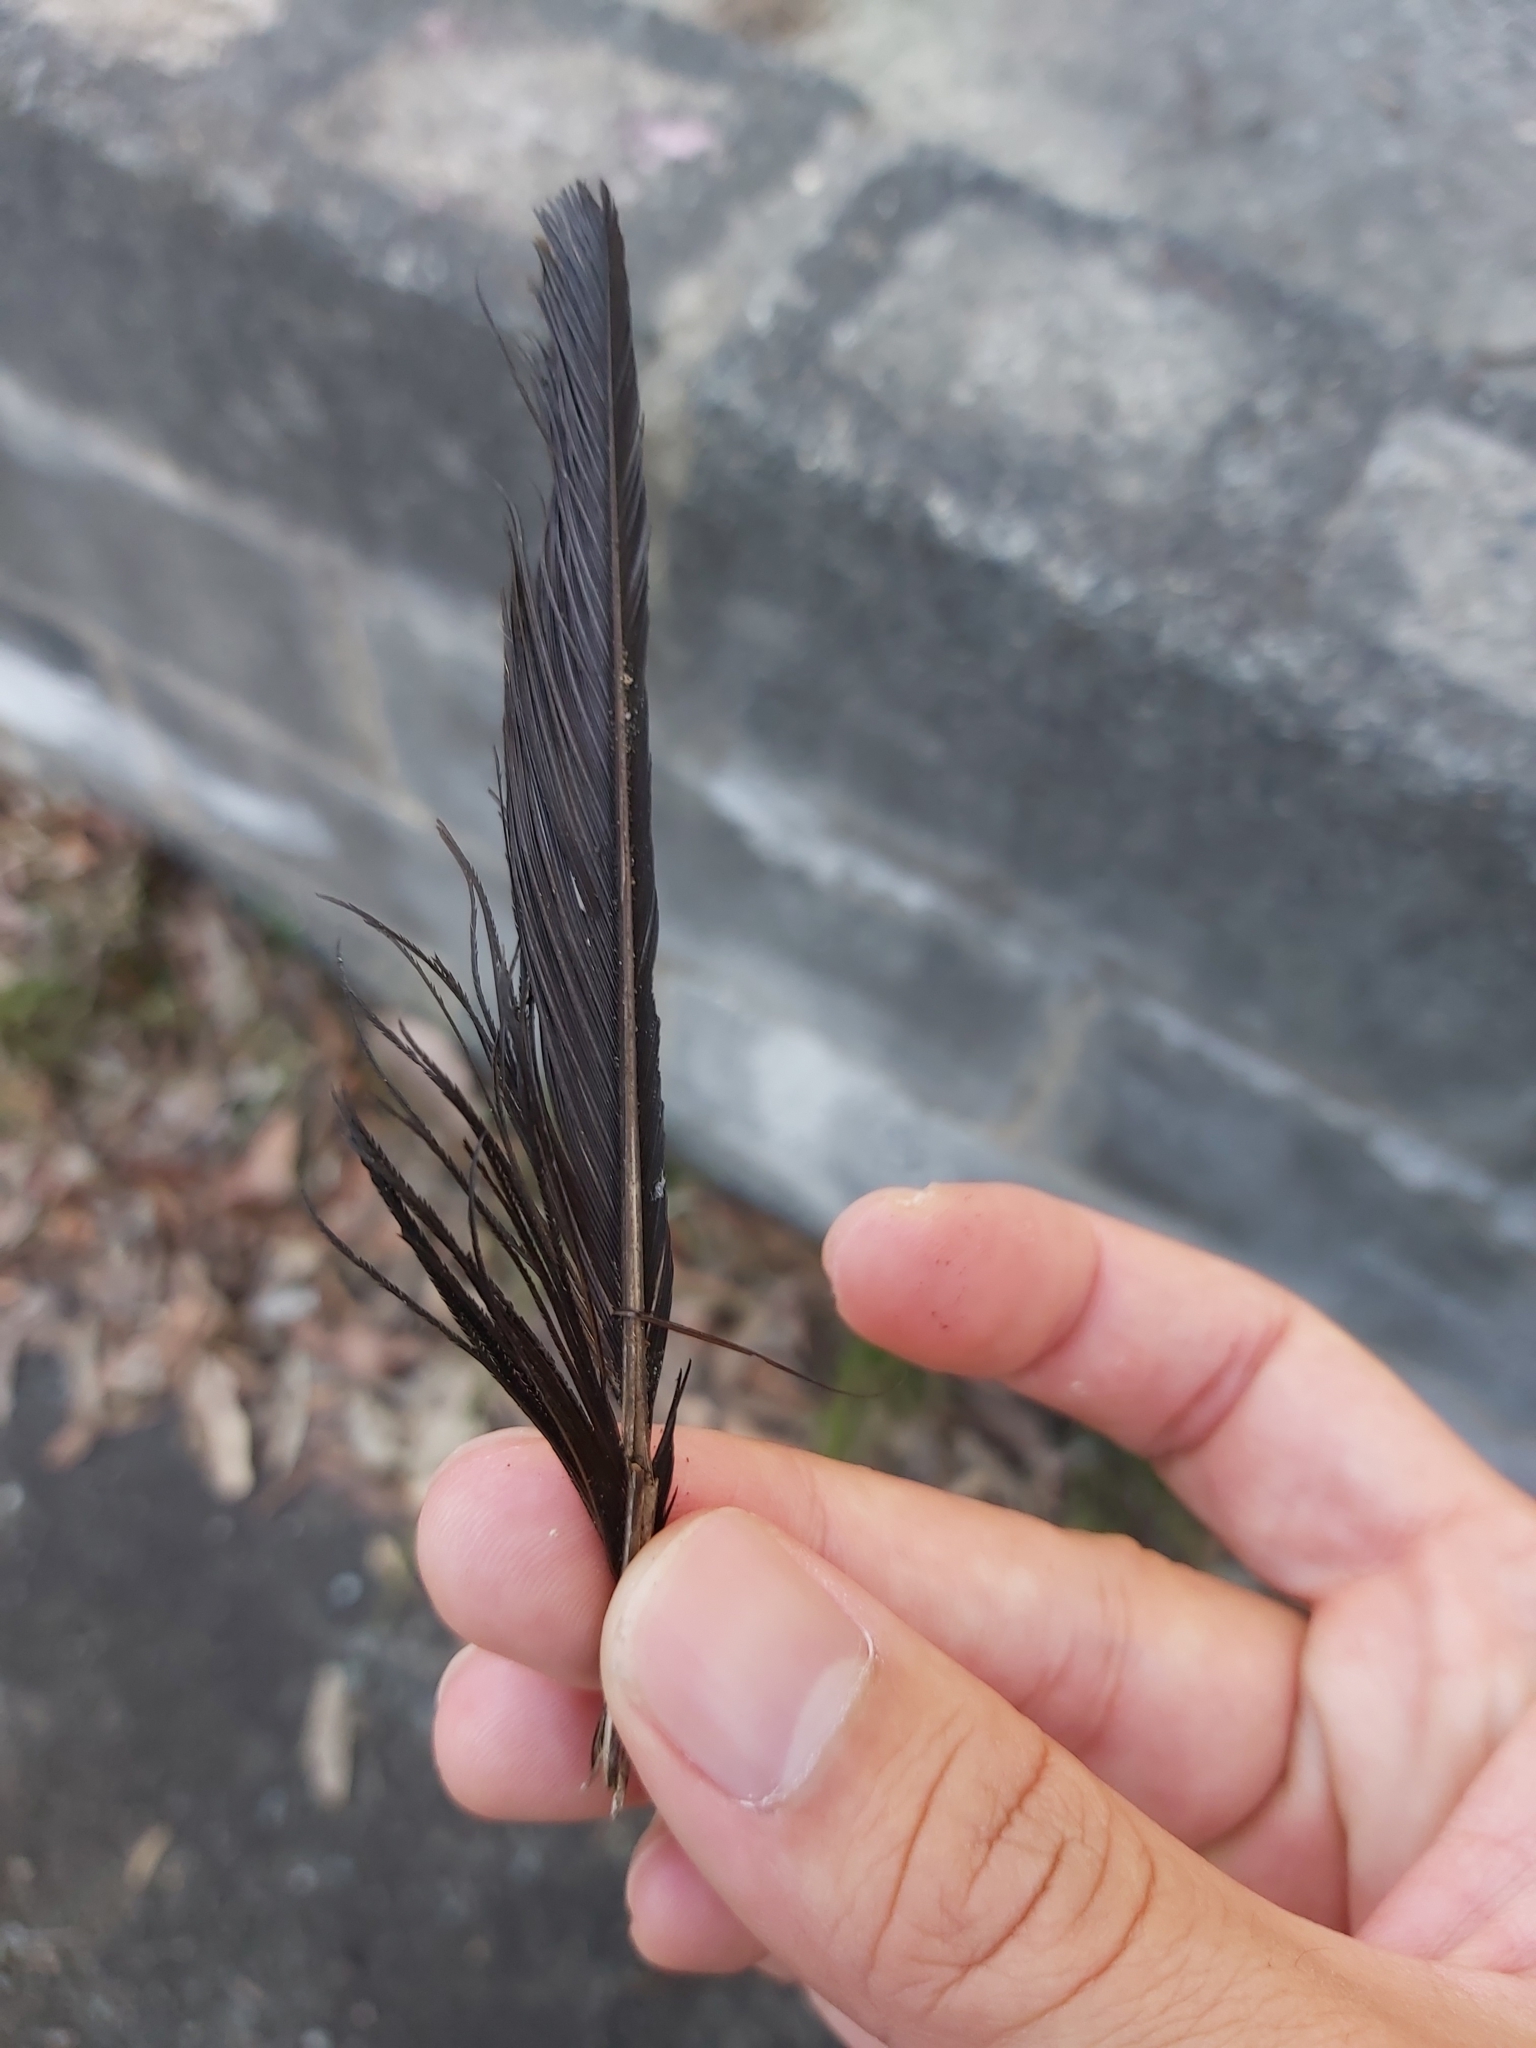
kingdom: Animalia
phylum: Chordata
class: Aves
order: Passeriformes
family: Cracticidae
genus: Gymnorhina
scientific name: Gymnorhina tibicen
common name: Australian magpie
